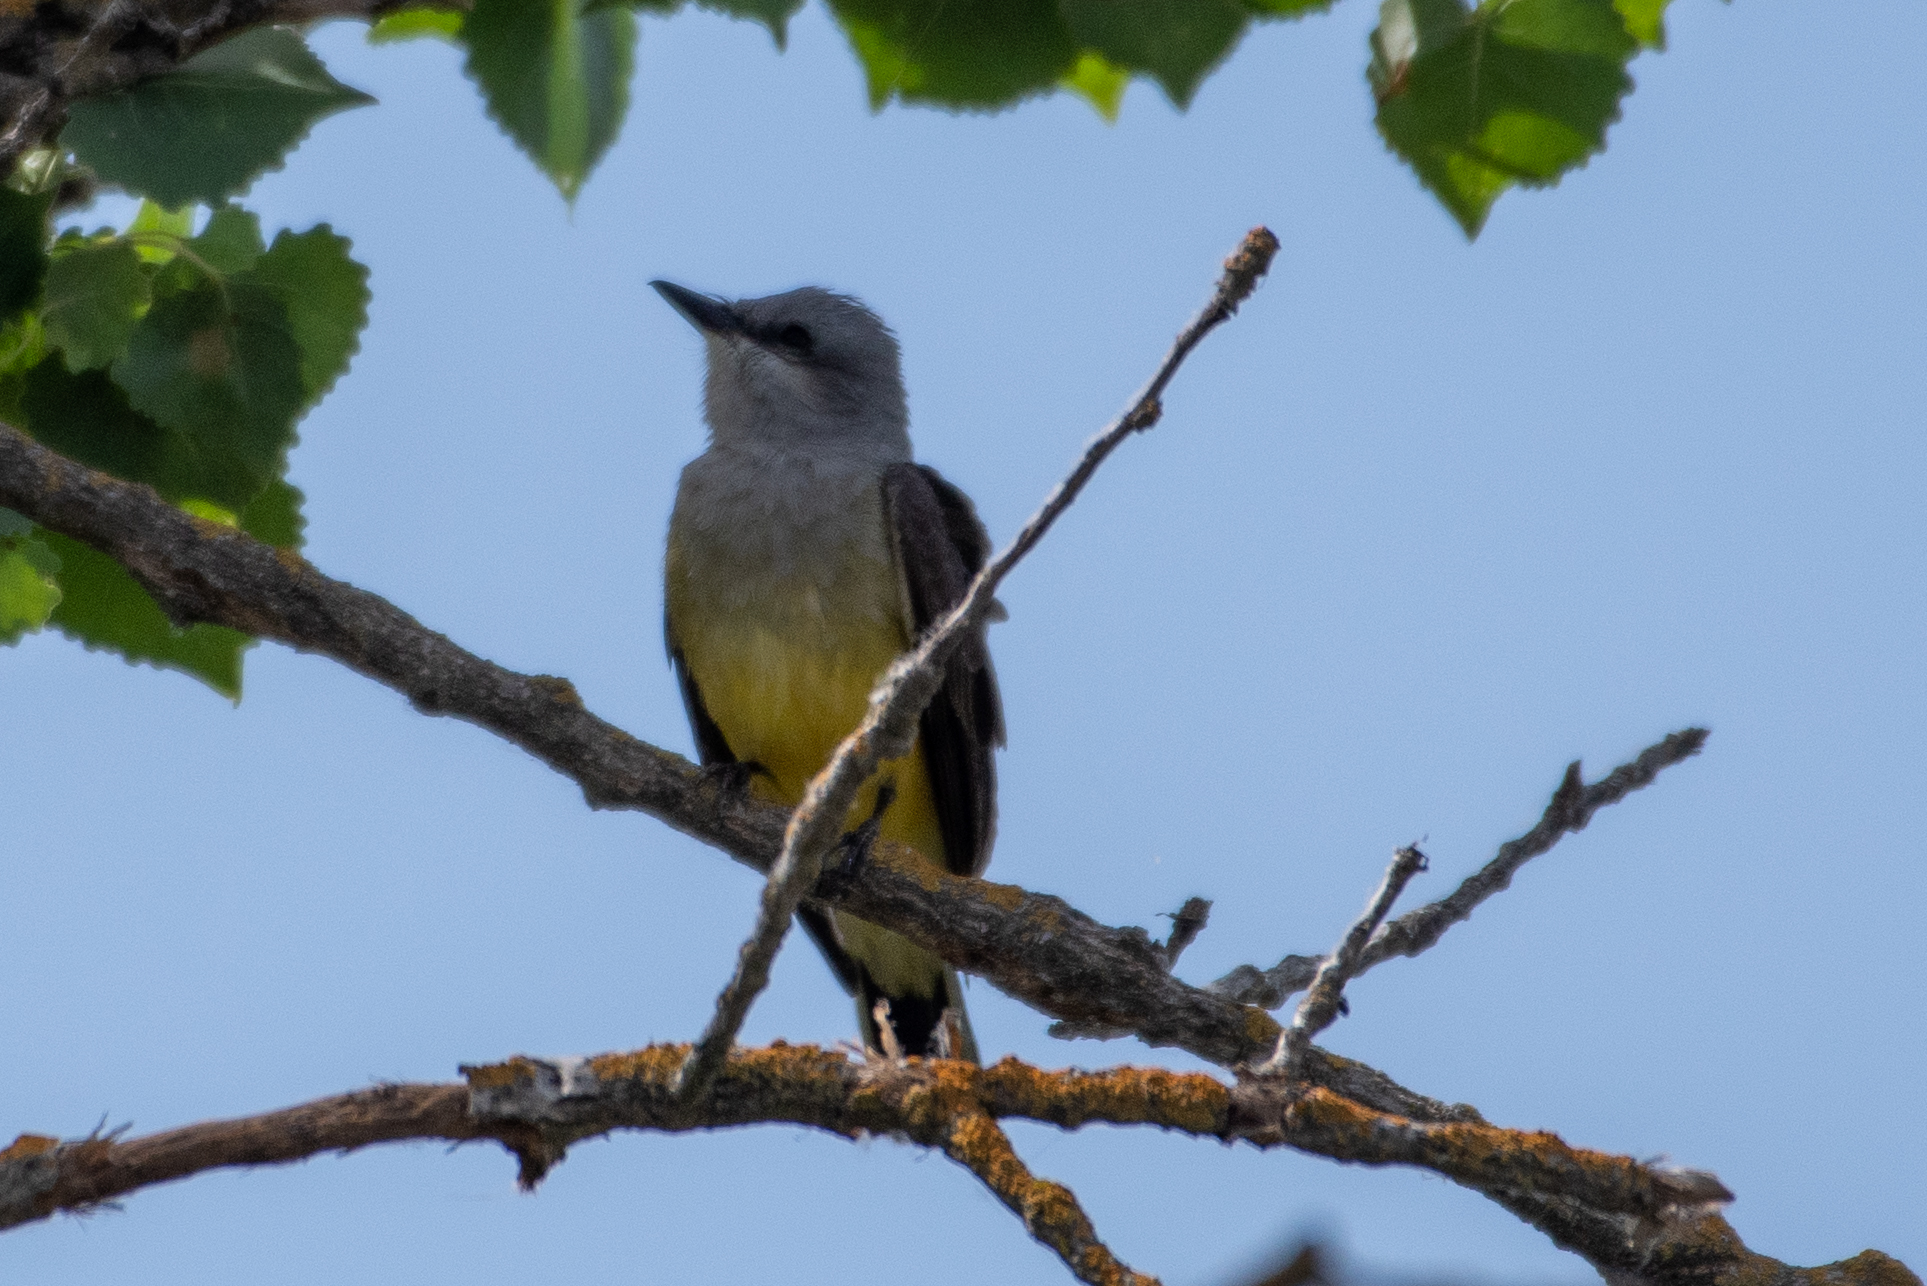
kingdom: Animalia
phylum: Chordata
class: Aves
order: Passeriformes
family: Tyrannidae
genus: Tyrannus
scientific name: Tyrannus verticalis
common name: Western kingbird
